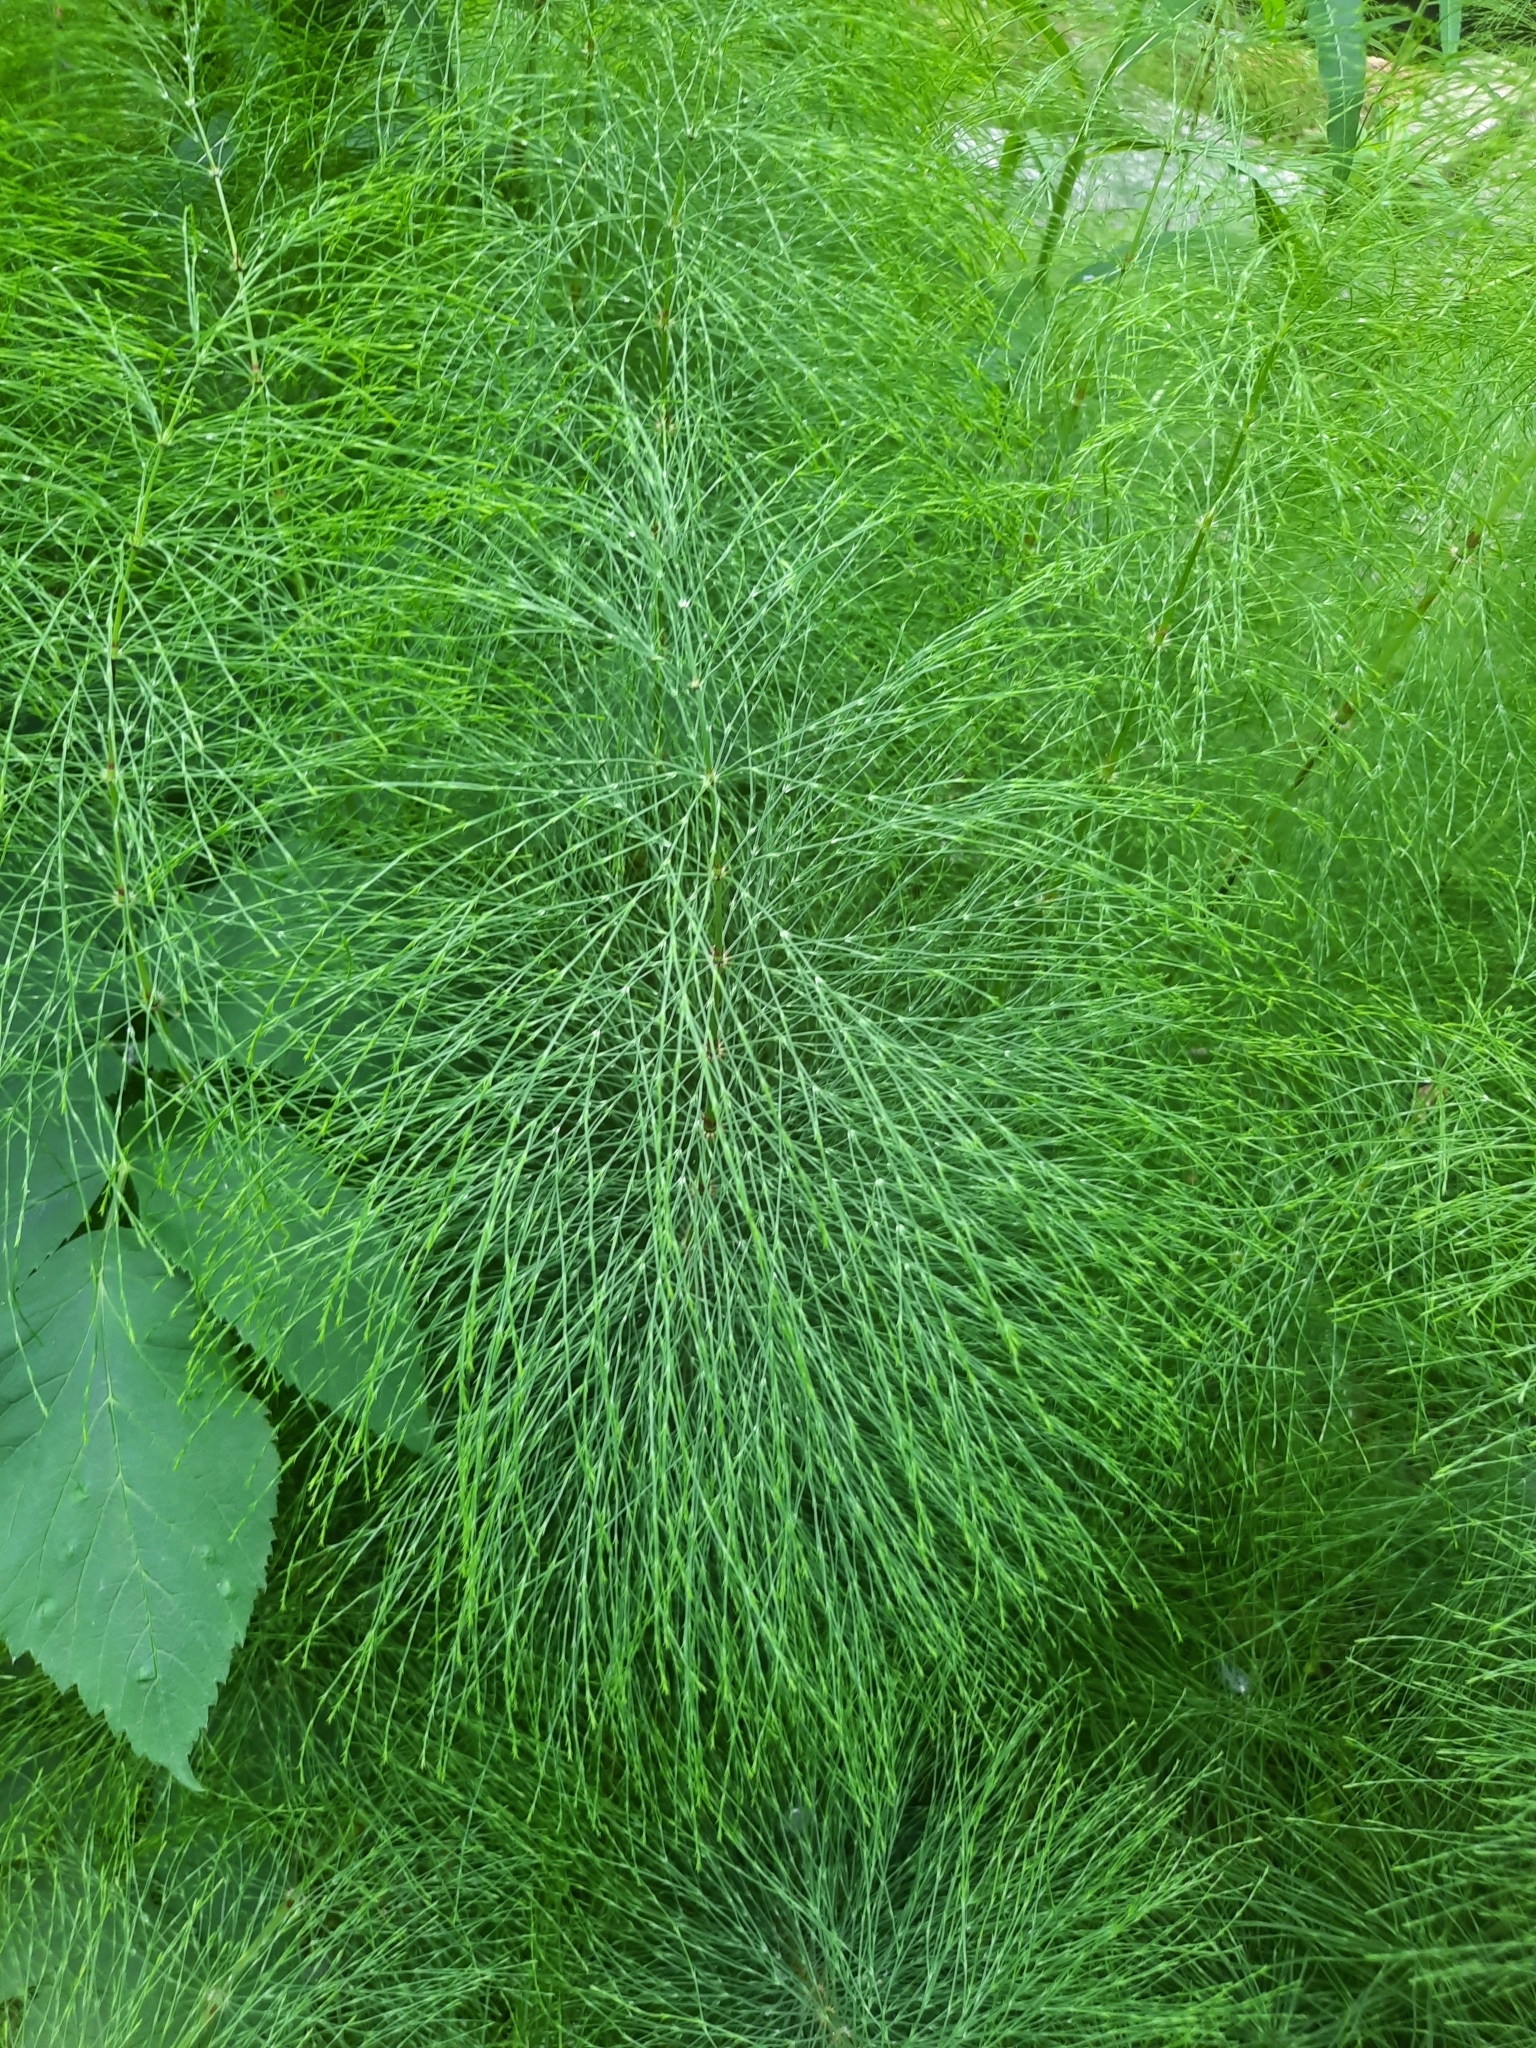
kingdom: Plantae
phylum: Tracheophyta
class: Polypodiopsida
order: Equisetales
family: Equisetaceae
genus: Equisetum
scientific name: Equisetum sylvaticum
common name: Wood horsetail
